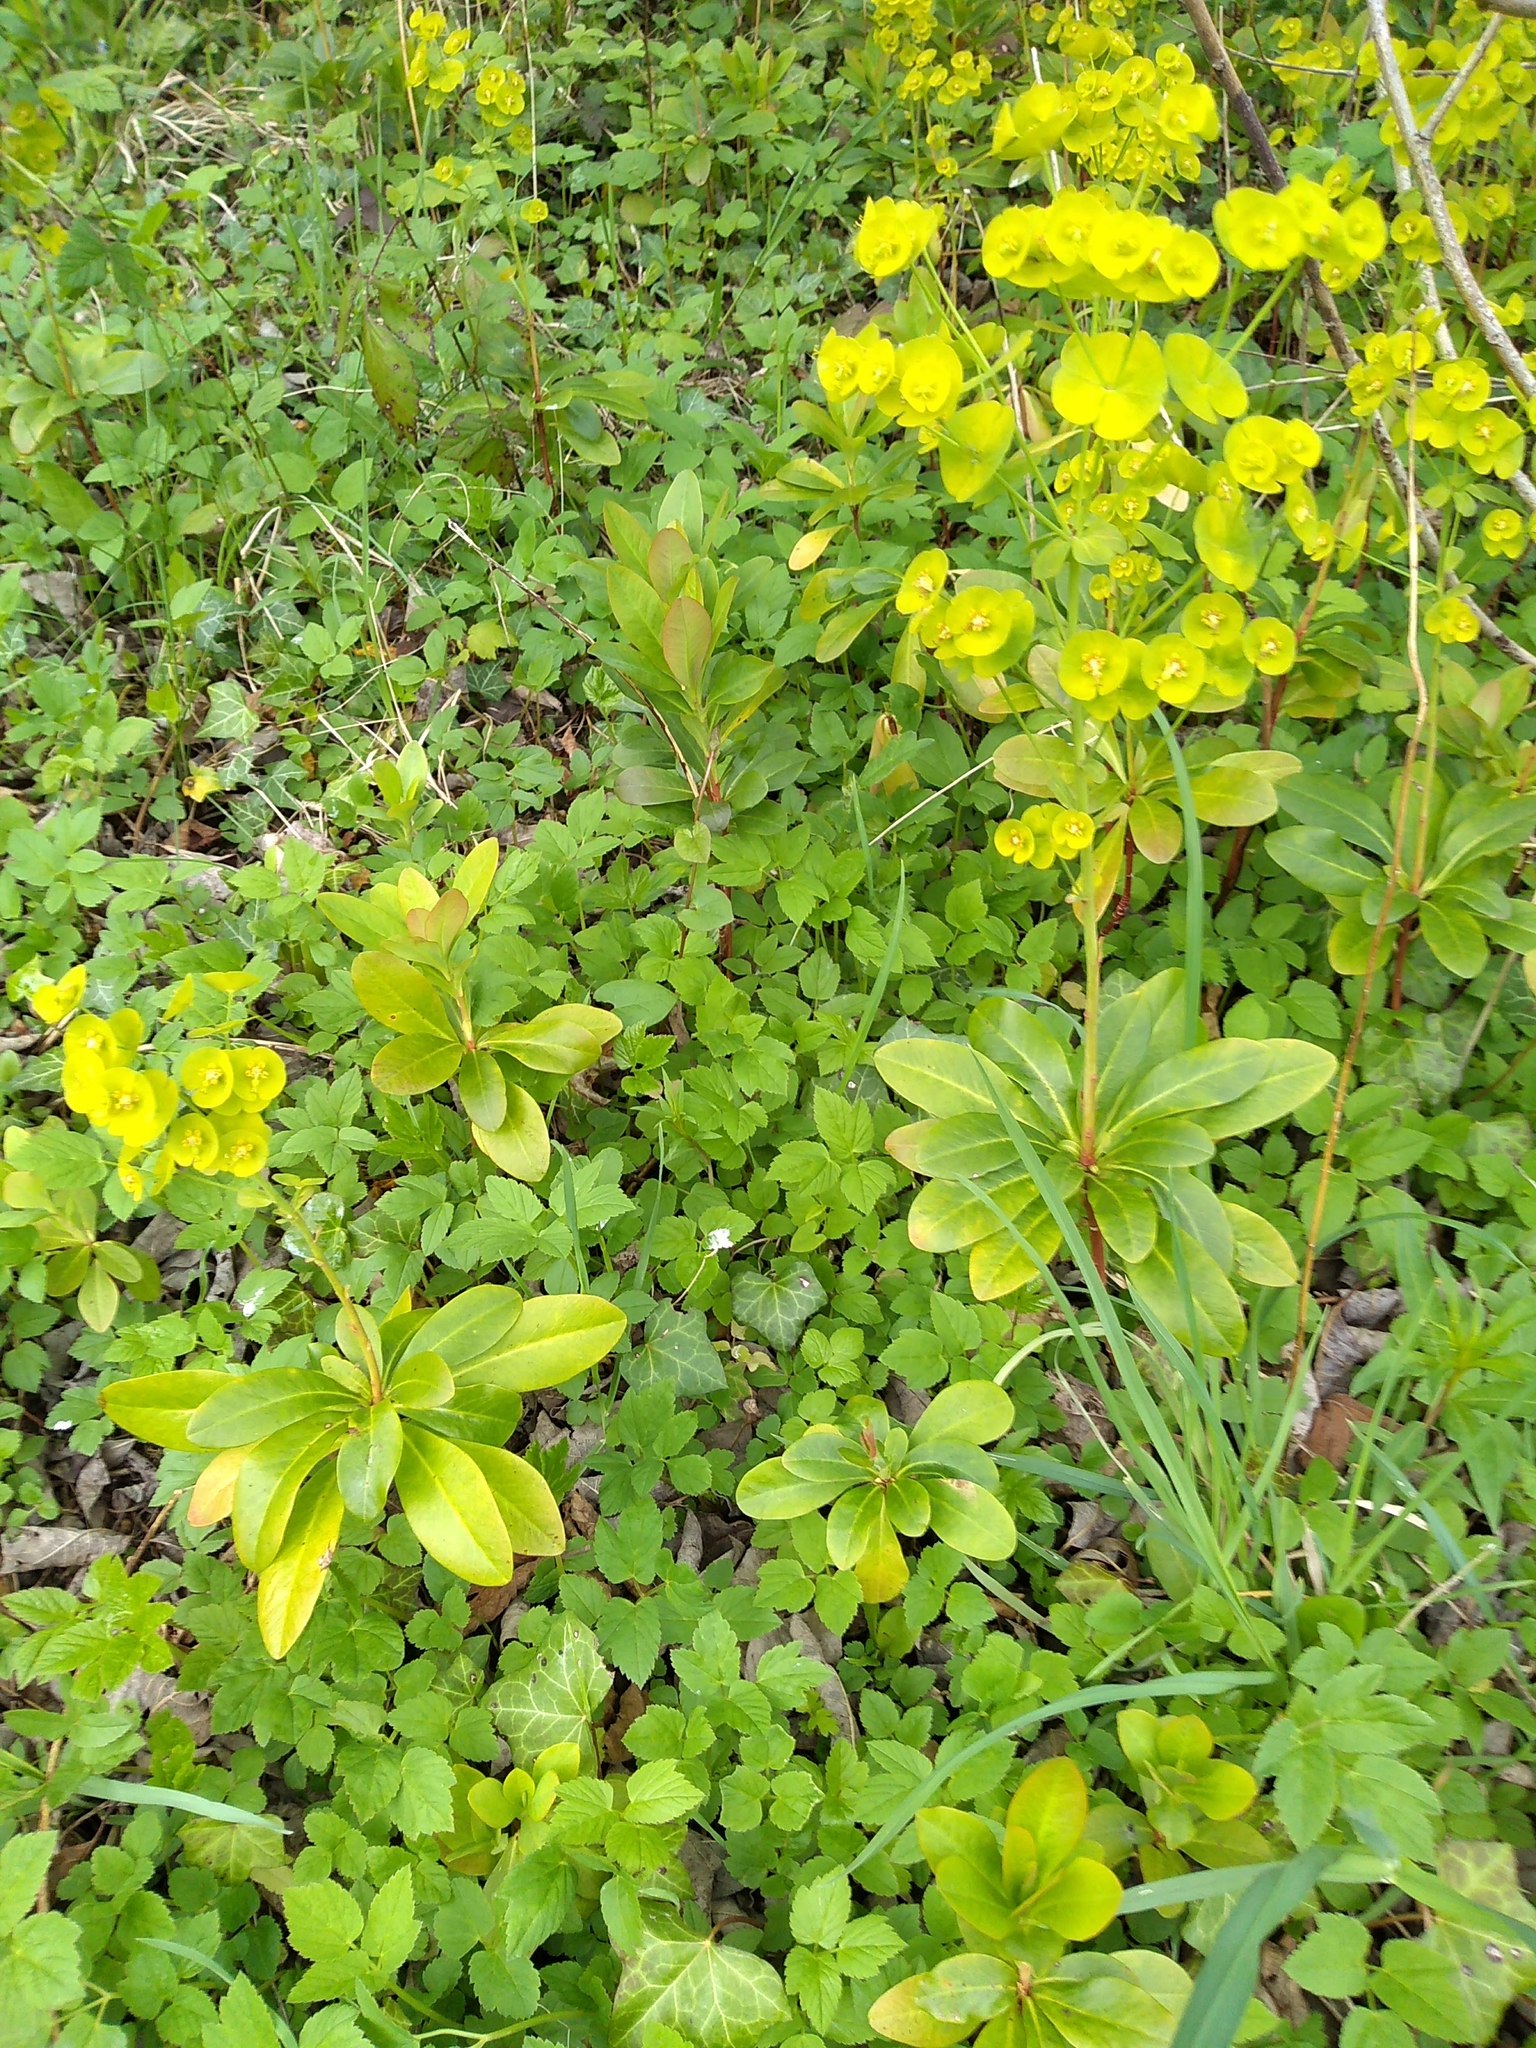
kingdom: Plantae
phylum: Tracheophyta
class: Magnoliopsida
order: Malpighiales
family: Euphorbiaceae
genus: Euphorbia
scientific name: Euphorbia amygdaloides
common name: Wood spurge
